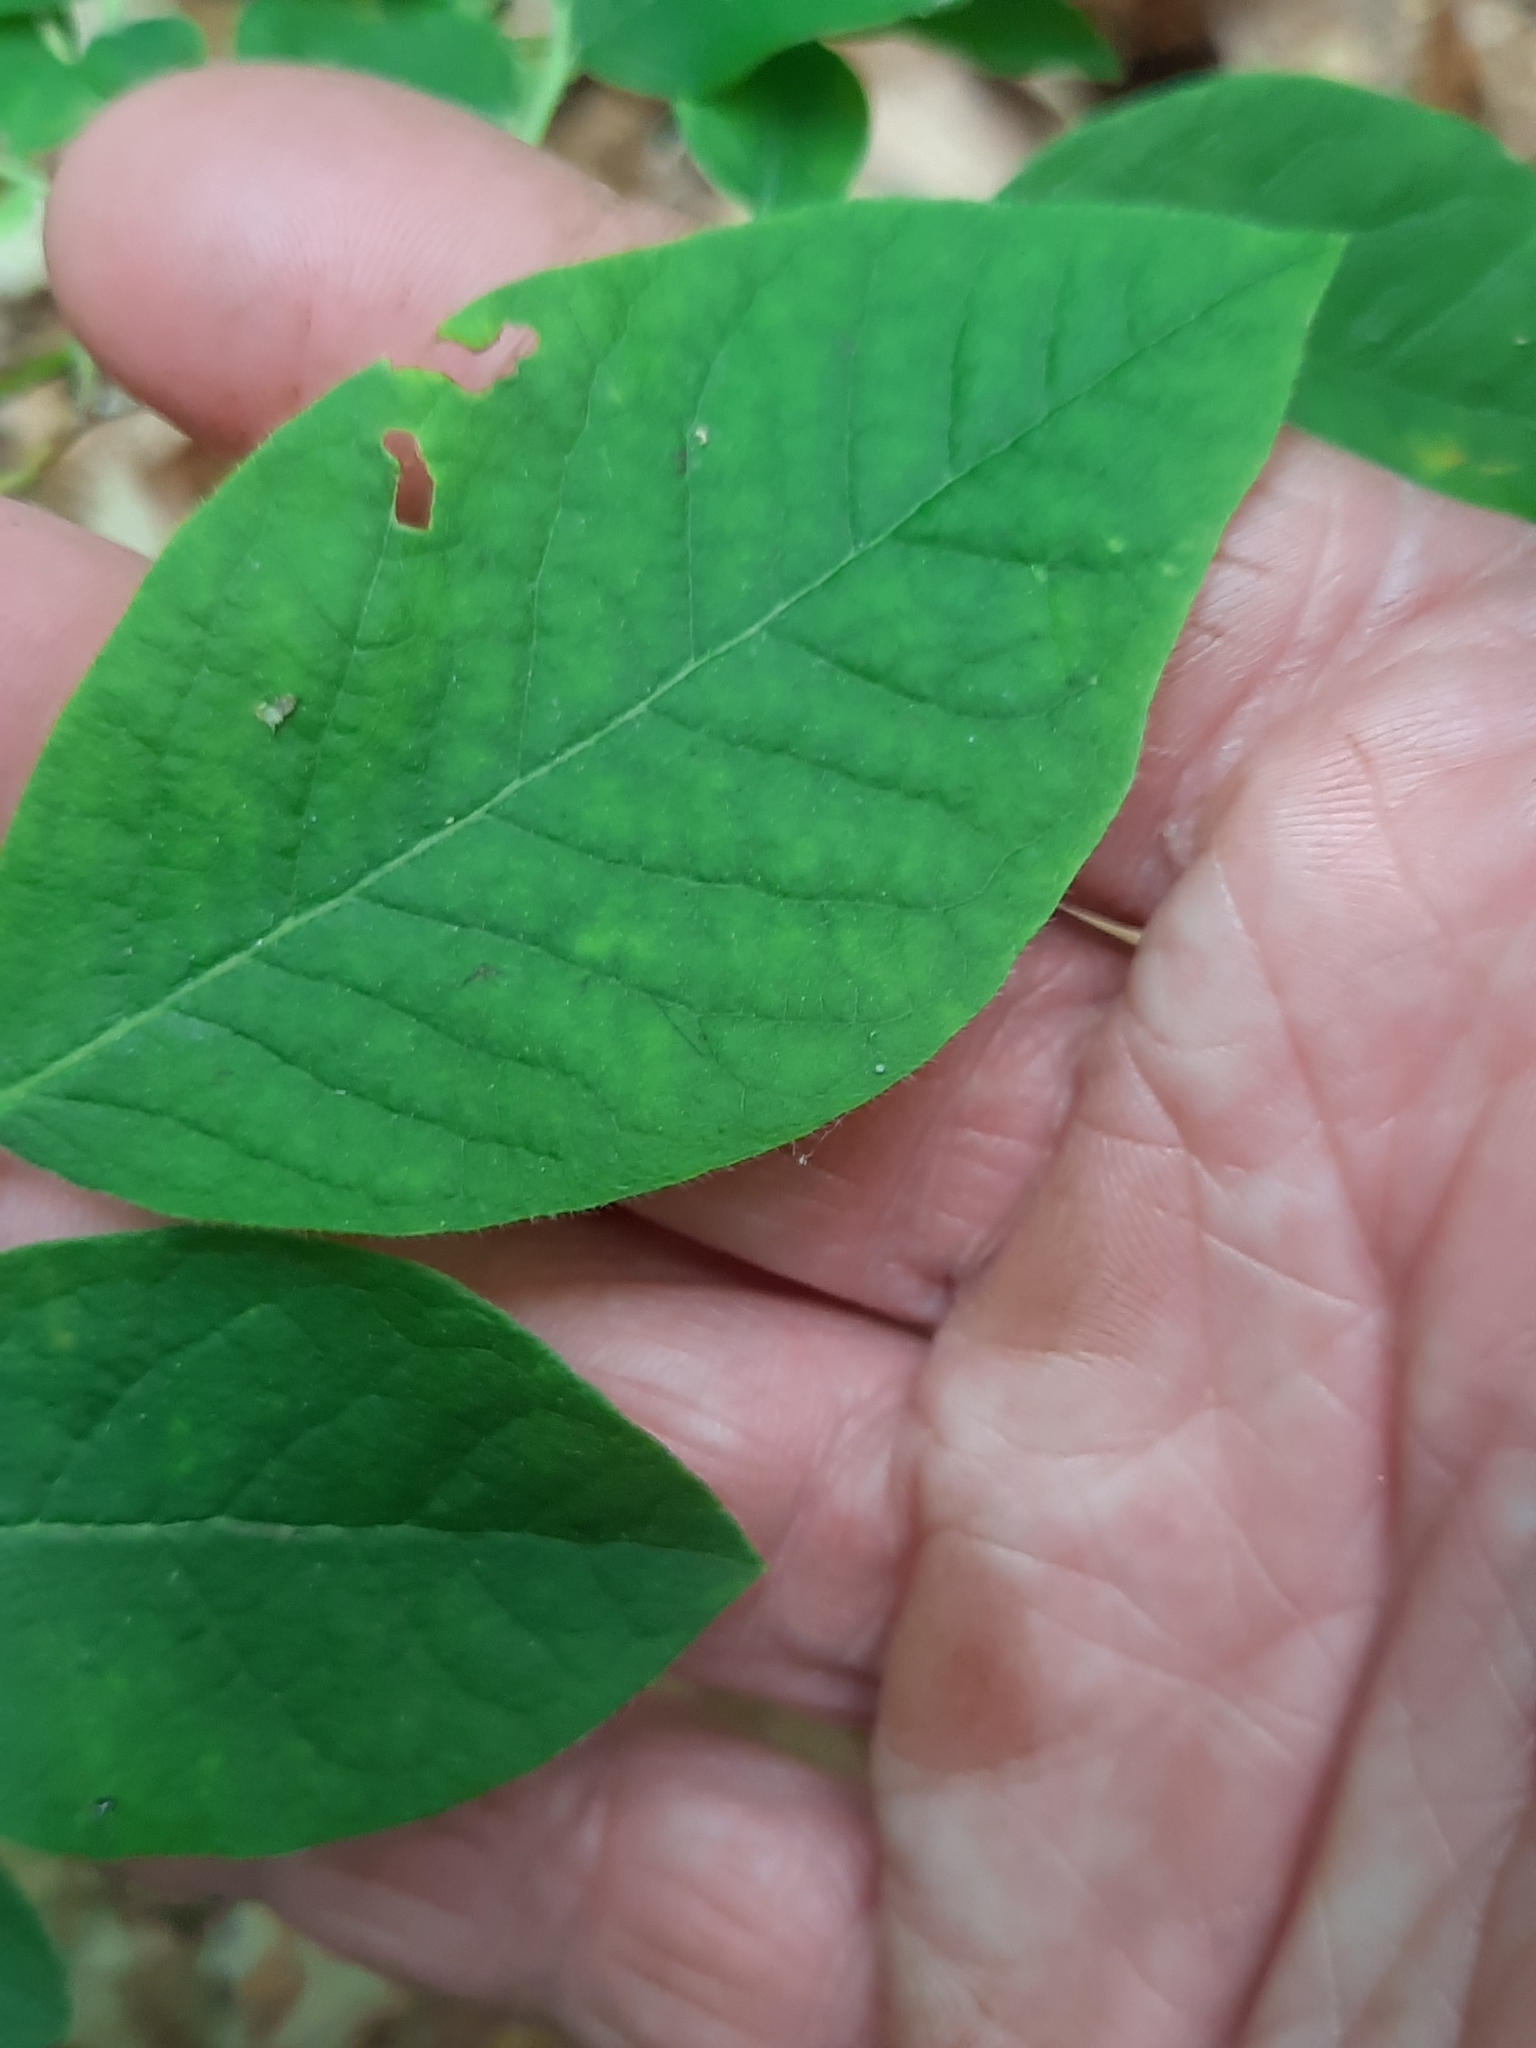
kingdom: Plantae
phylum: Tracheophyta
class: Magnoliopsida
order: Ericales
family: Ericaceae
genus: Vaccinium
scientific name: Vaccinium stamineum
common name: Deerberry
